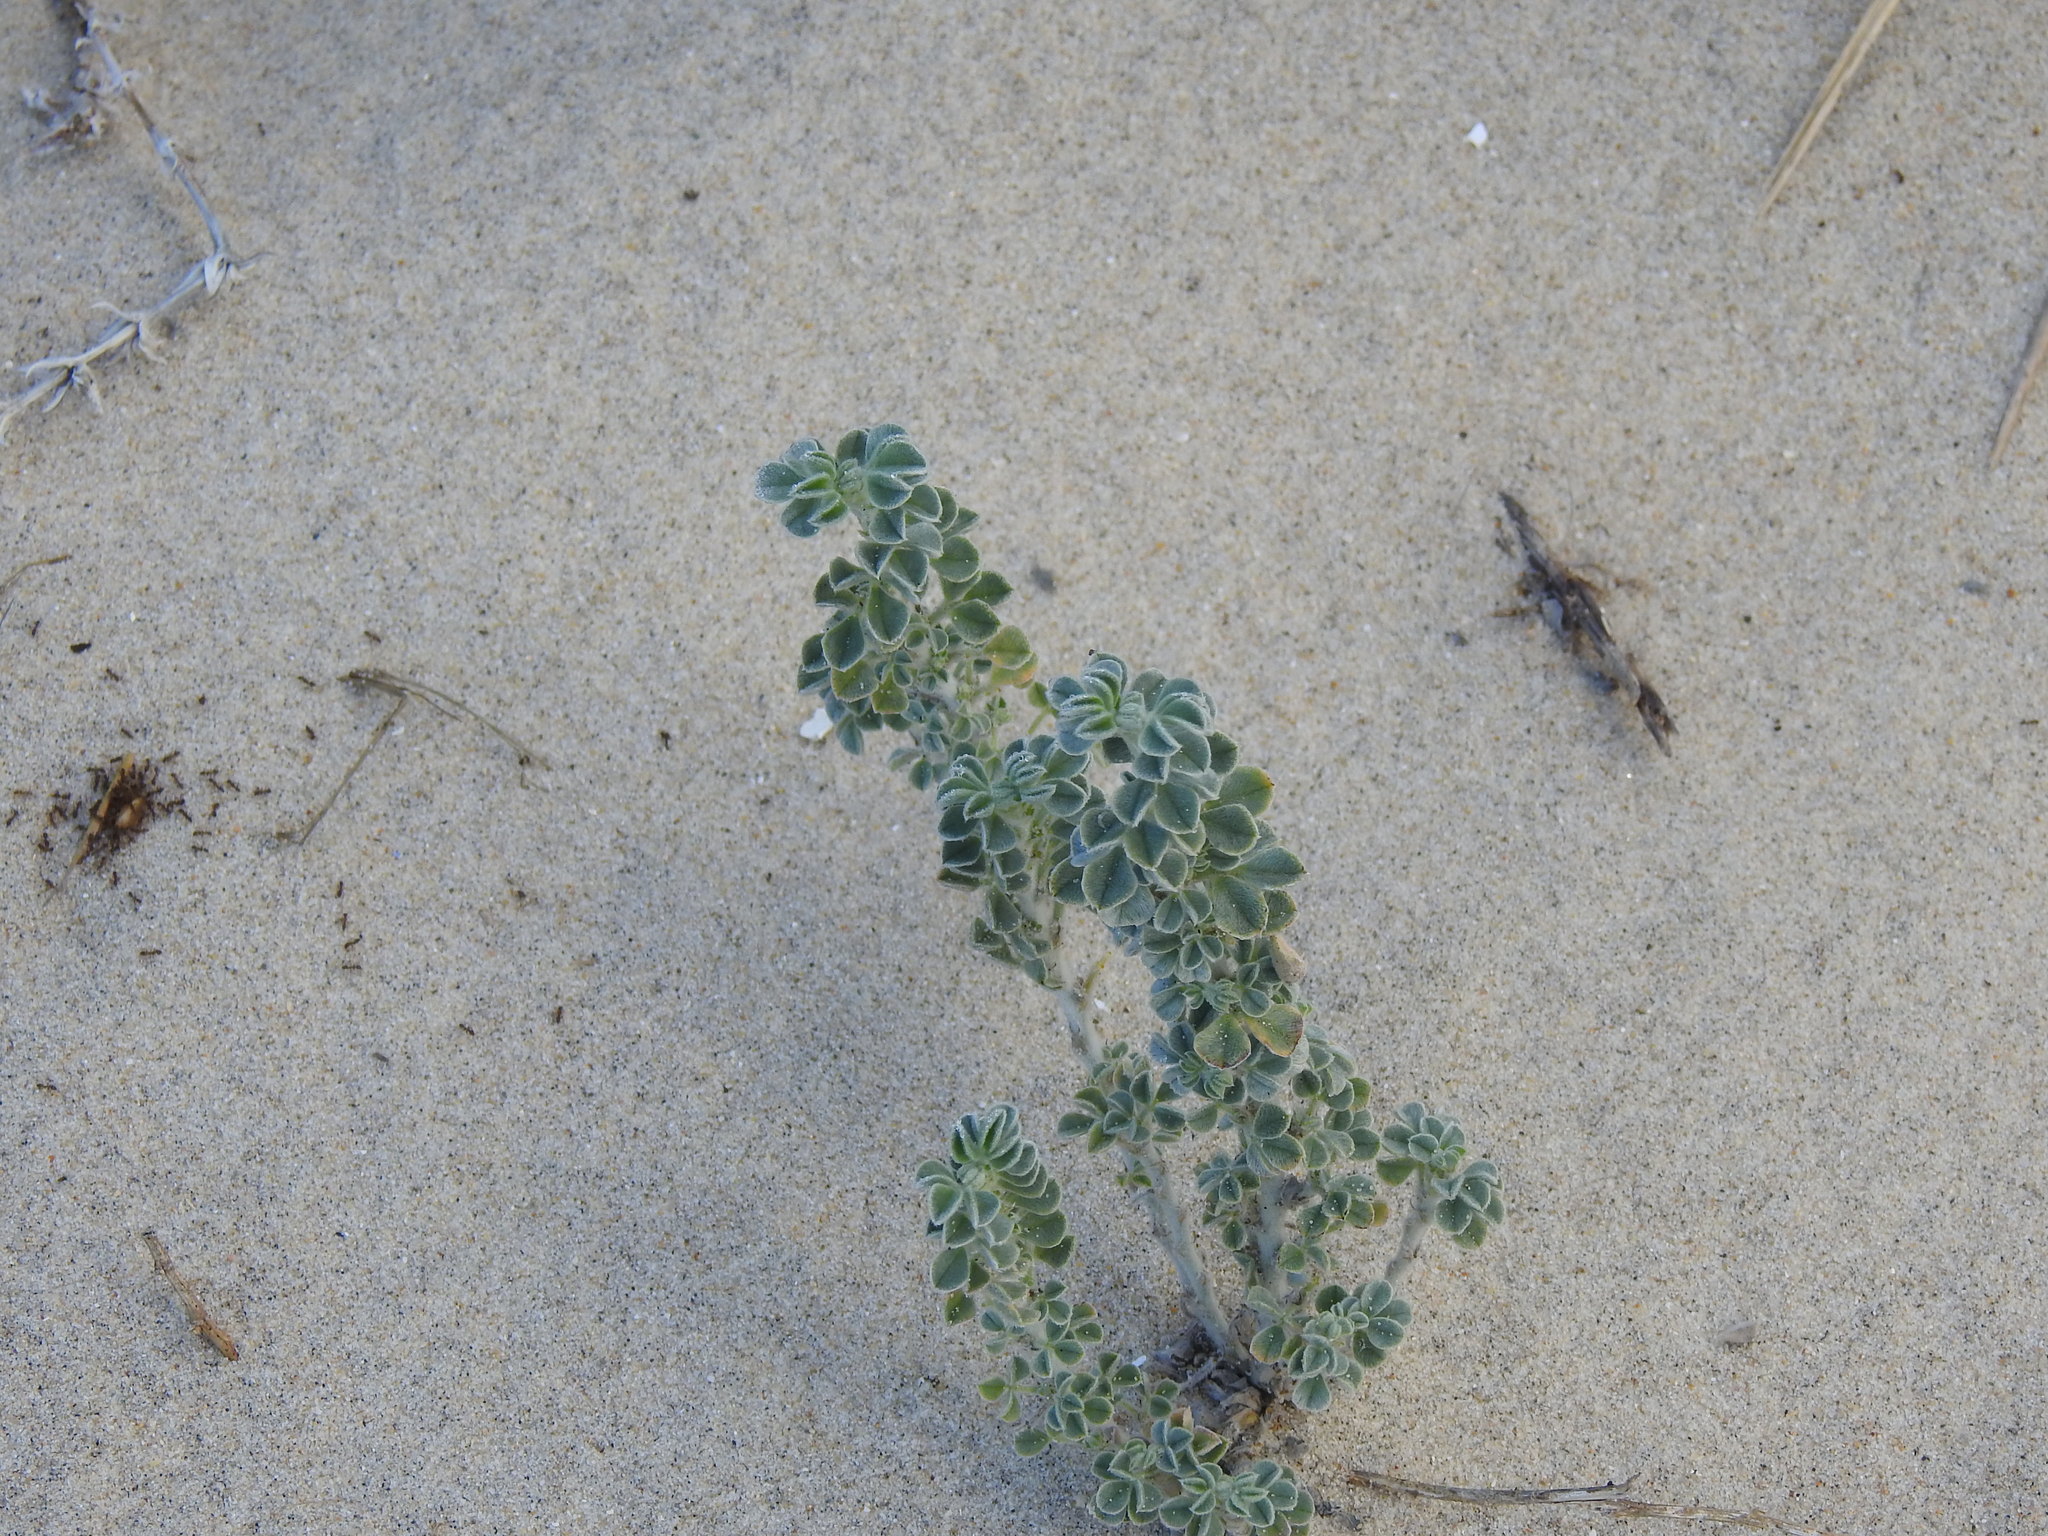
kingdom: Plantae
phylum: Tracheophyta
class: Magnoliopsida
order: Fabales
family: Fabaceae
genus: Medicago
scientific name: Medicago marina
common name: Sea medick
